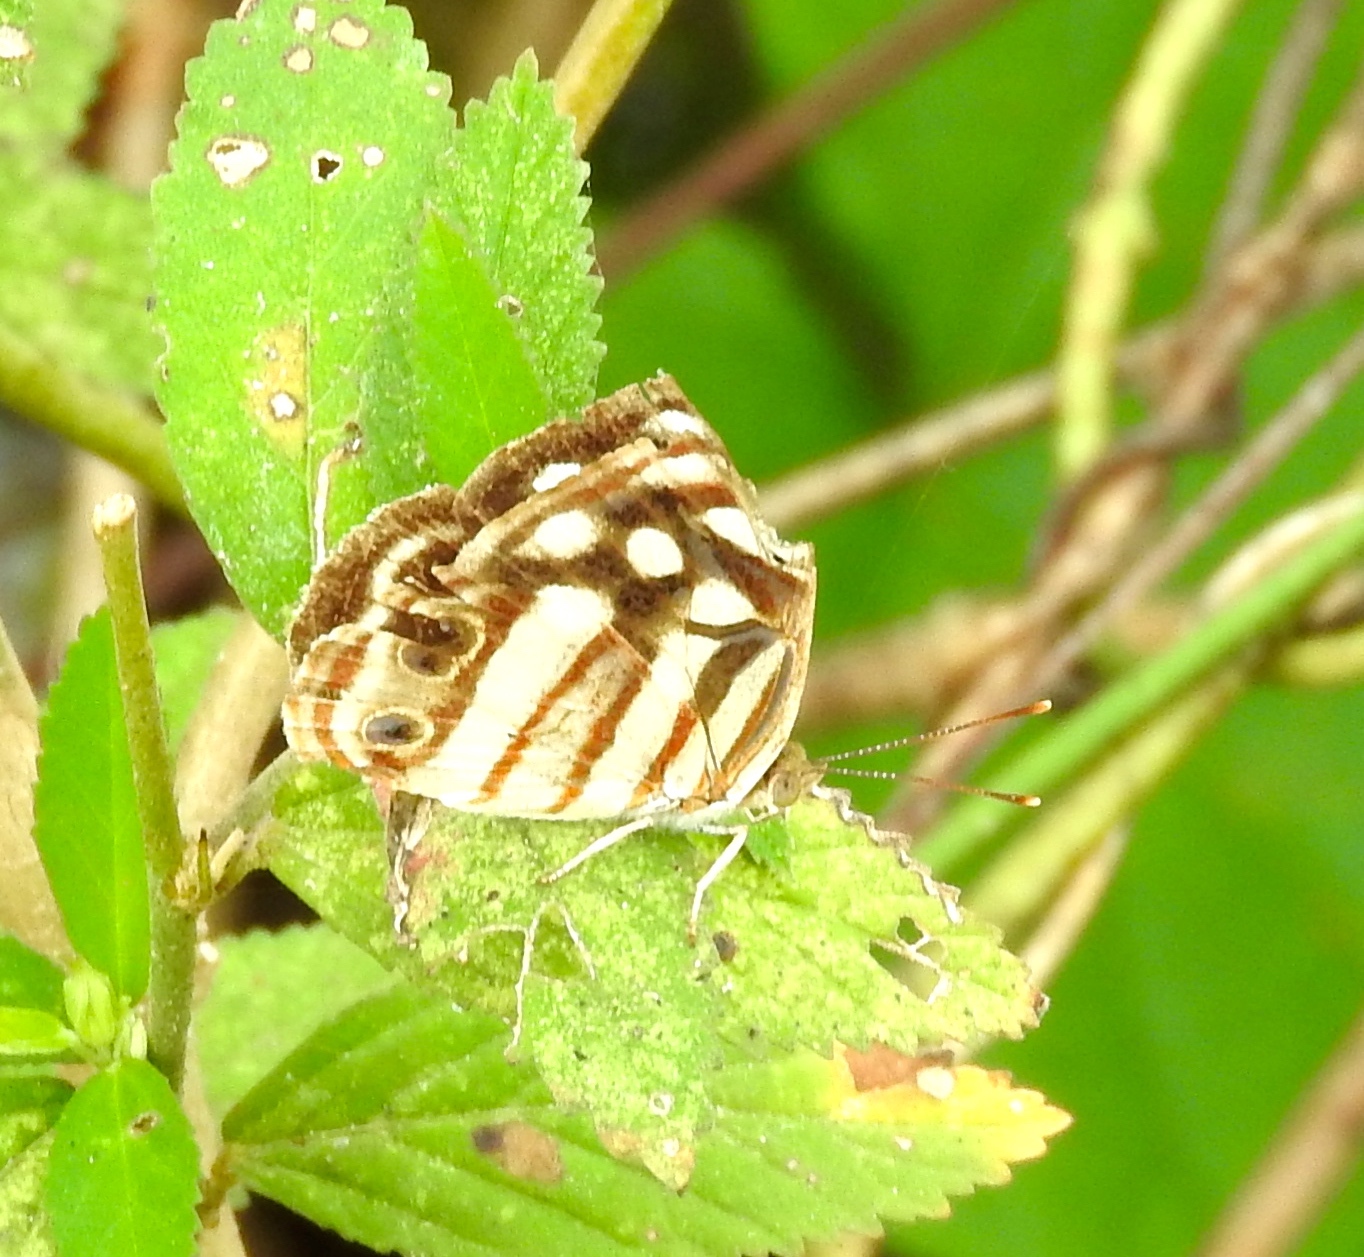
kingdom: Animalia
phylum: Arthropoda
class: Insecta
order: Lepidoptera
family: Nymphalidae
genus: Dynamine
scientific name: Dynamine mylitta
